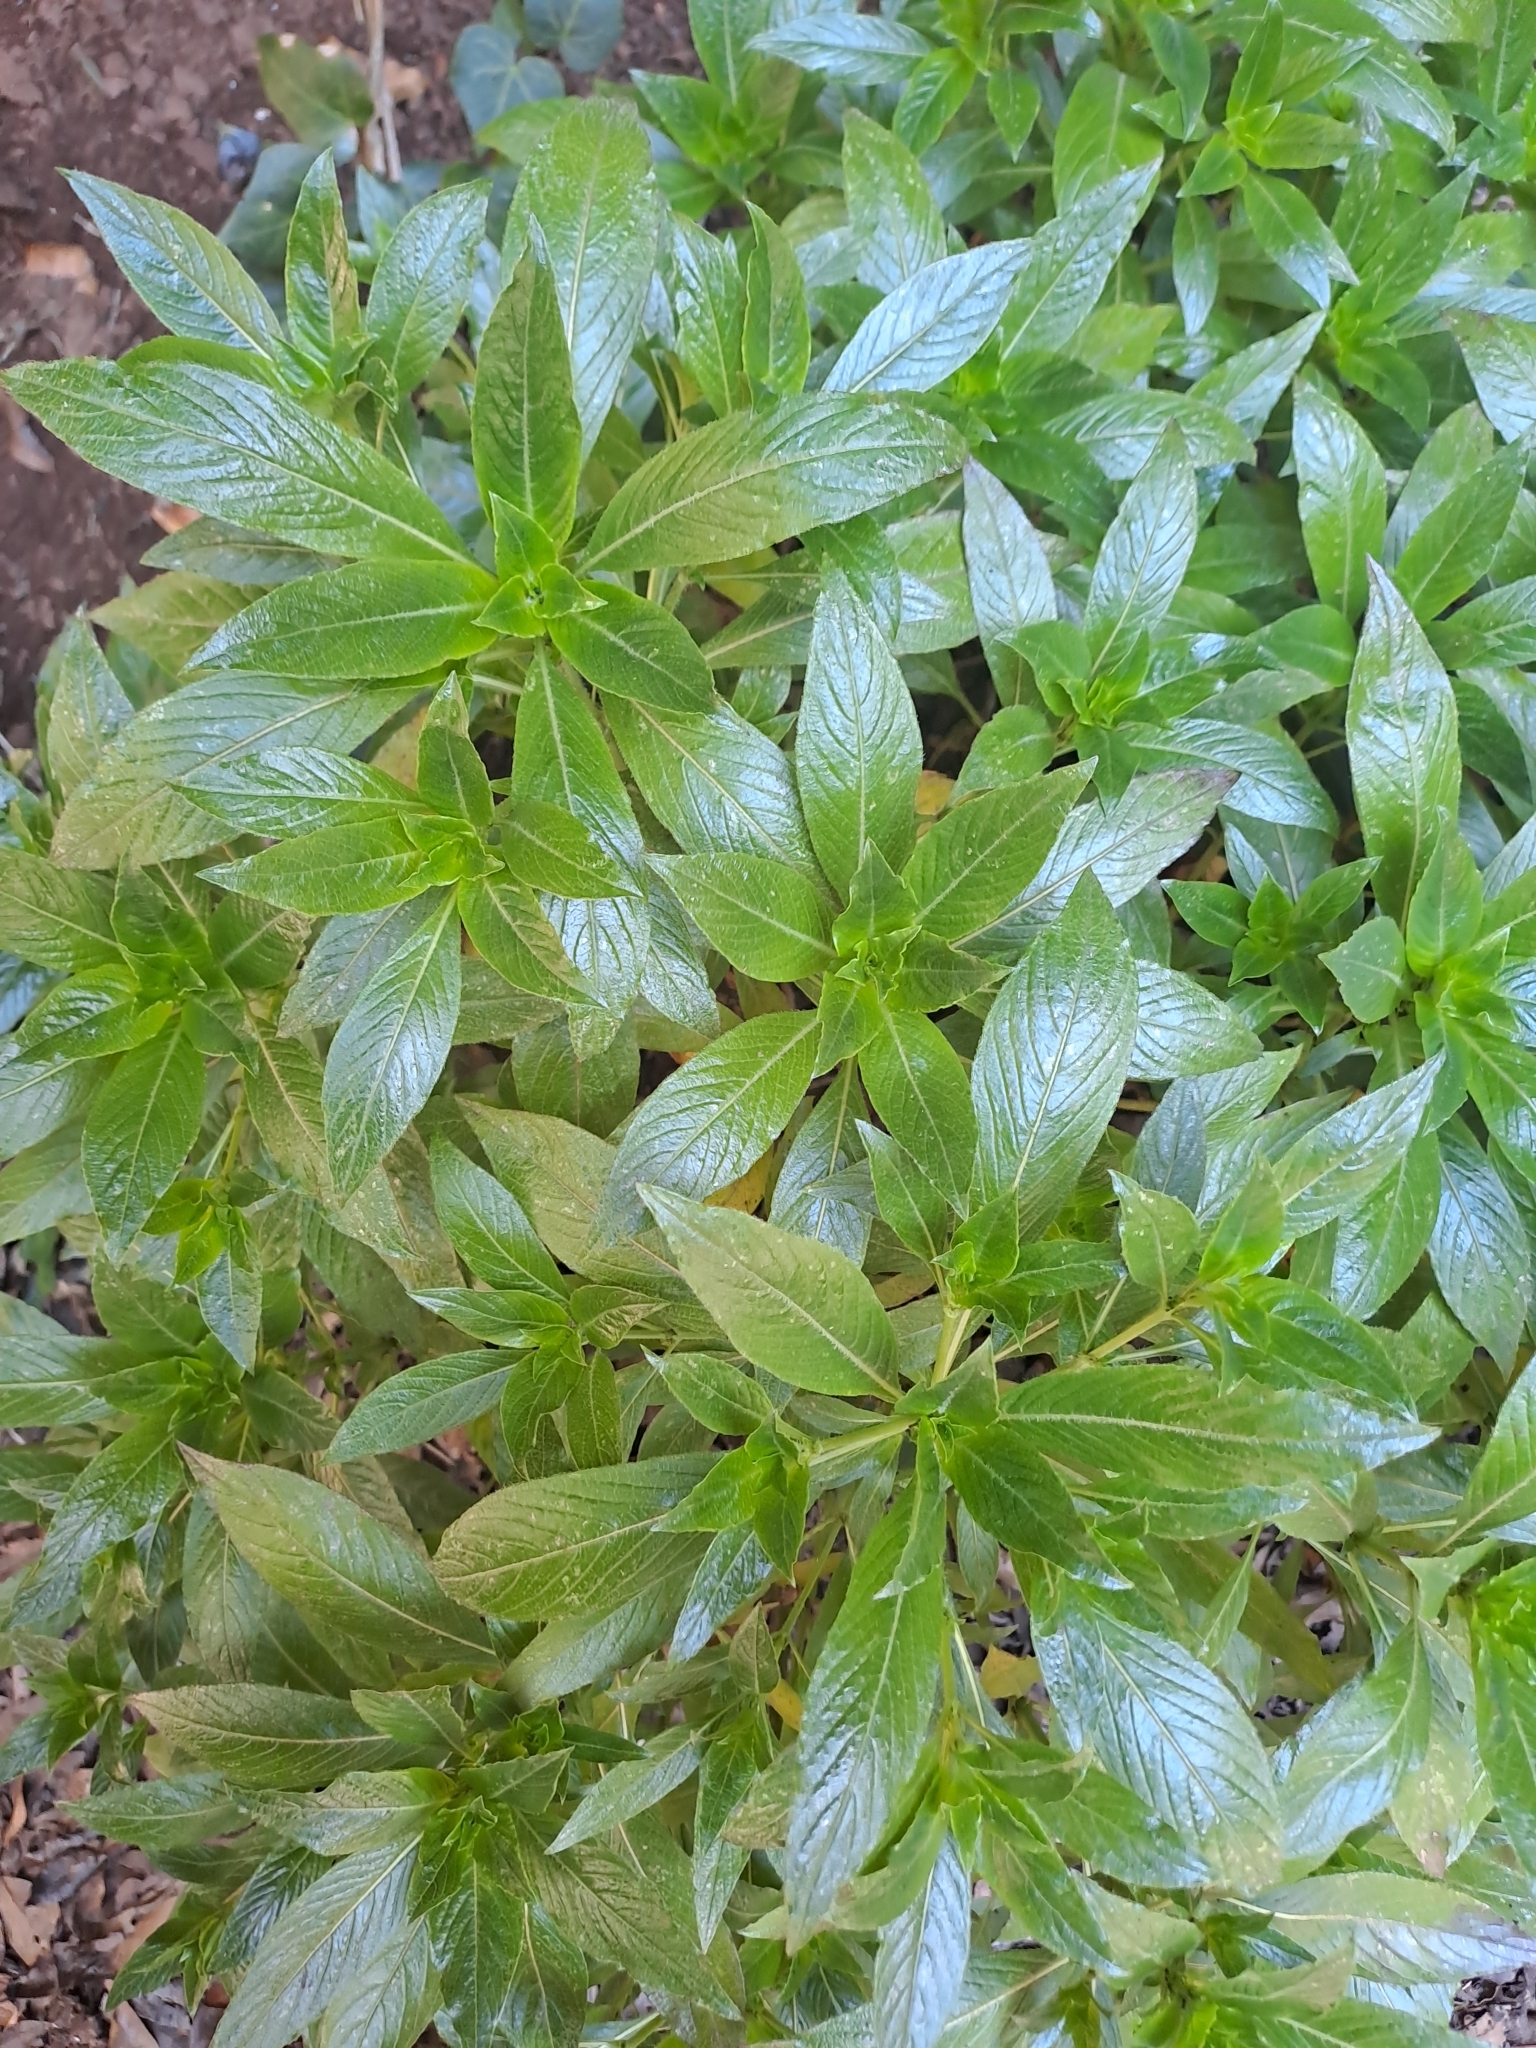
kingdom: Plantae
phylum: Tracheophyta
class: Magnoliopsida
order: Gentianales
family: Rubiaceae
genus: Phyllis
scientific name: Phyllis nobla
